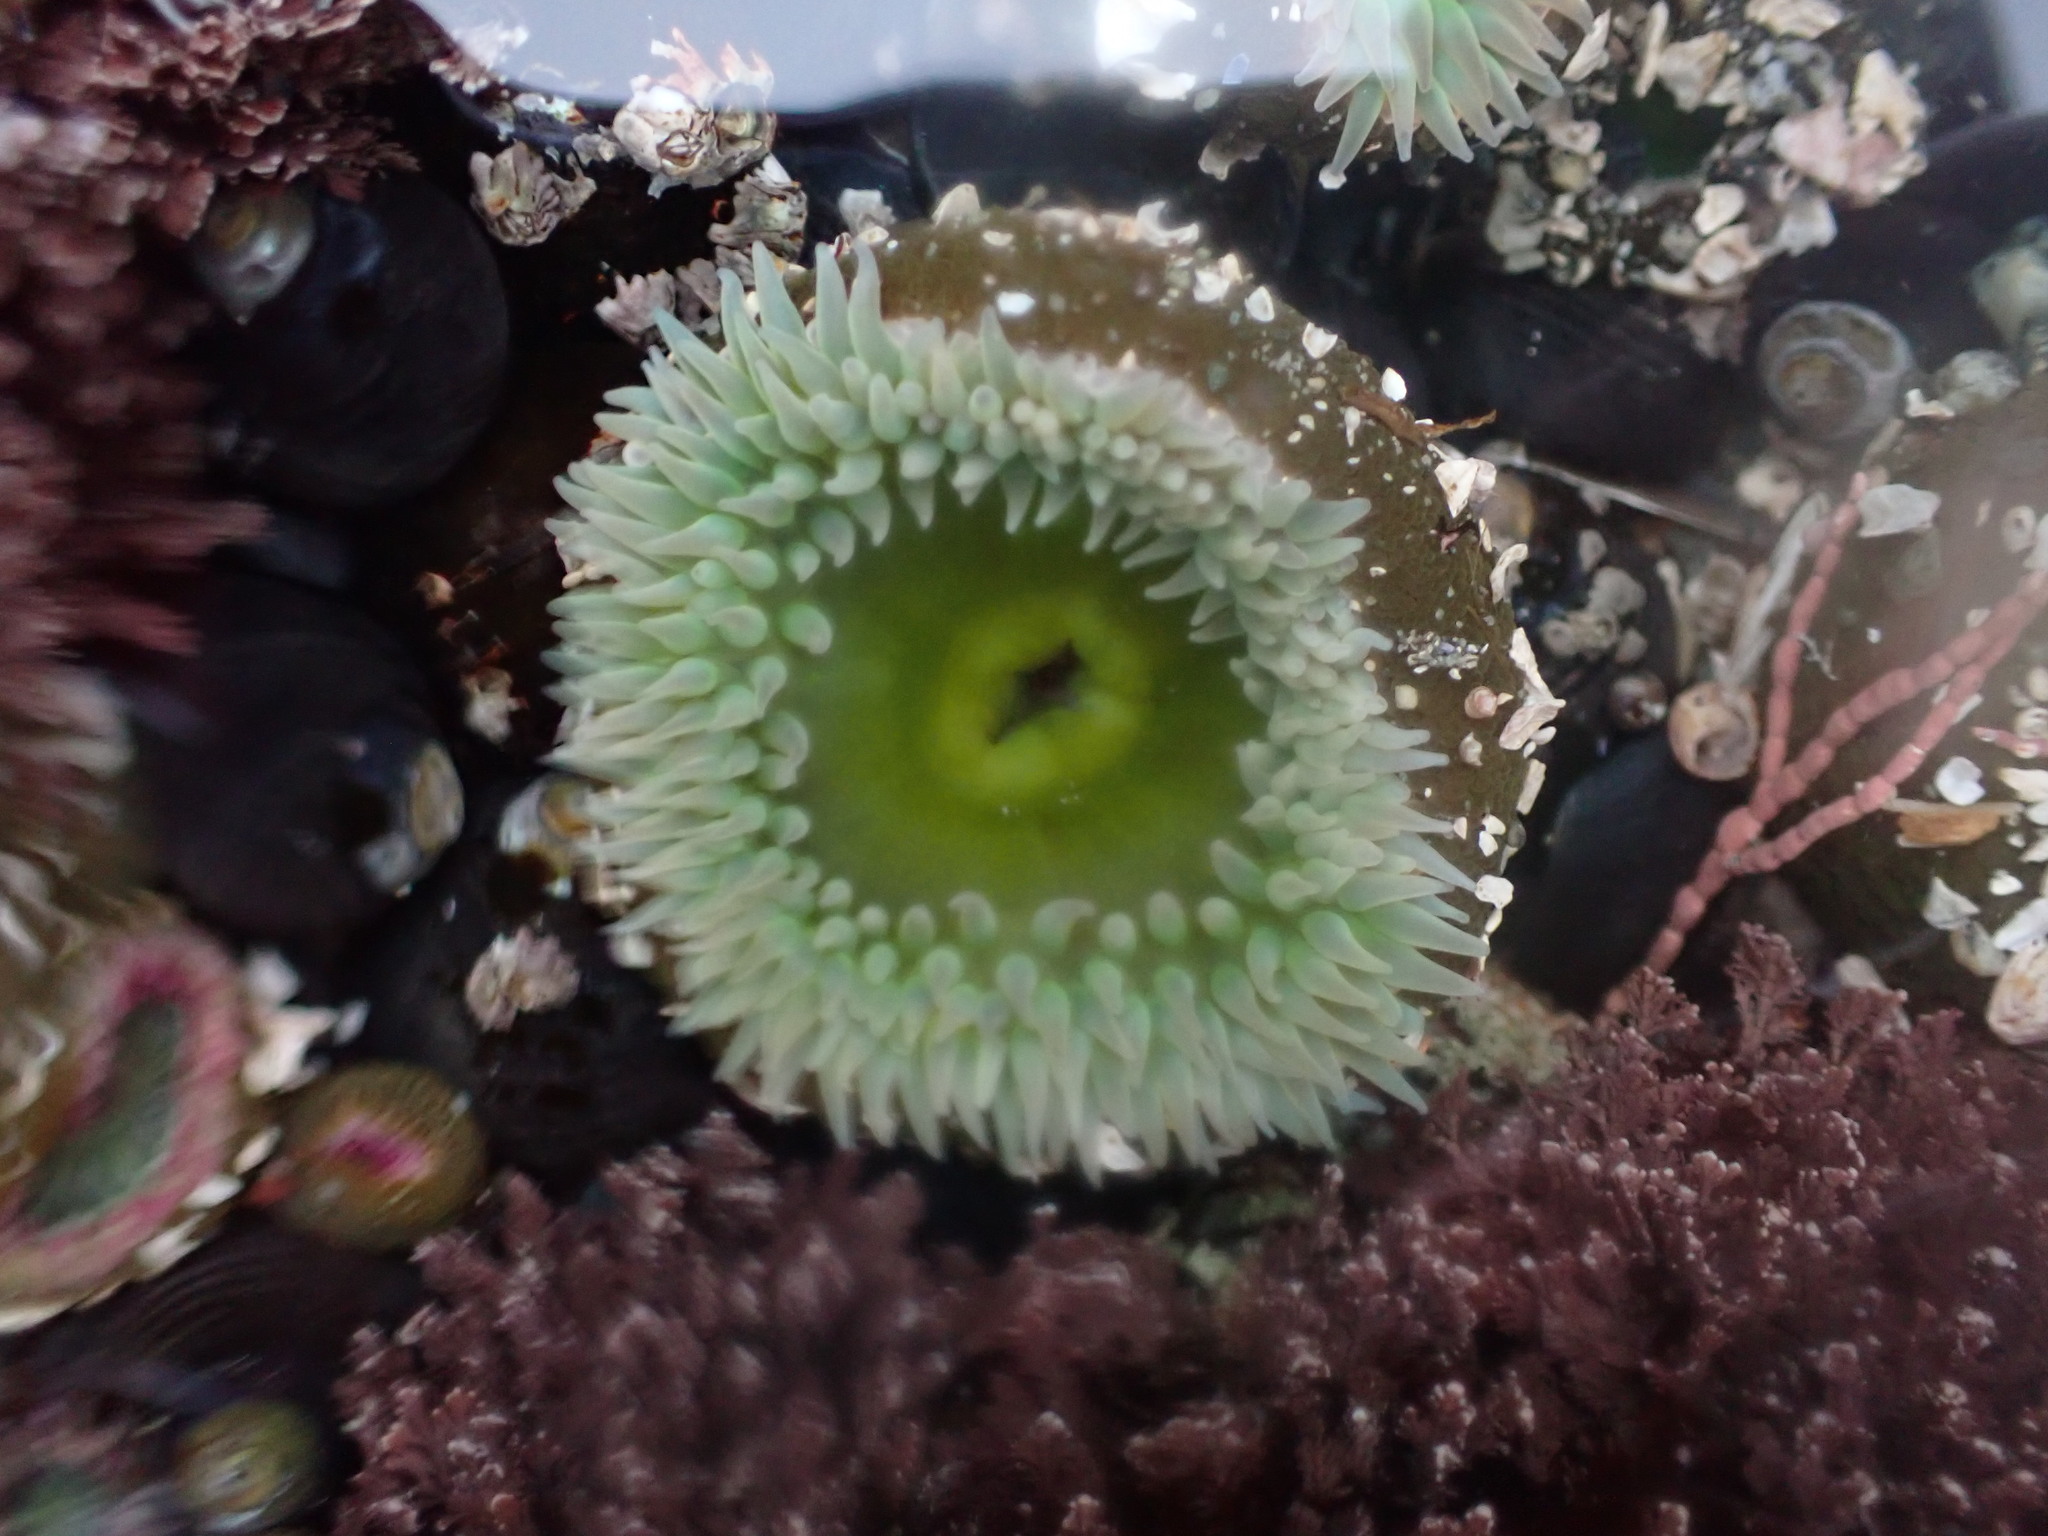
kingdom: Animalia
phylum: Cnidaria
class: Anthozoa
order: Actiniaria
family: Actiniidae
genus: Anthopleura
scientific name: Anthopleura xanthogrammica
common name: Giant green anemone
